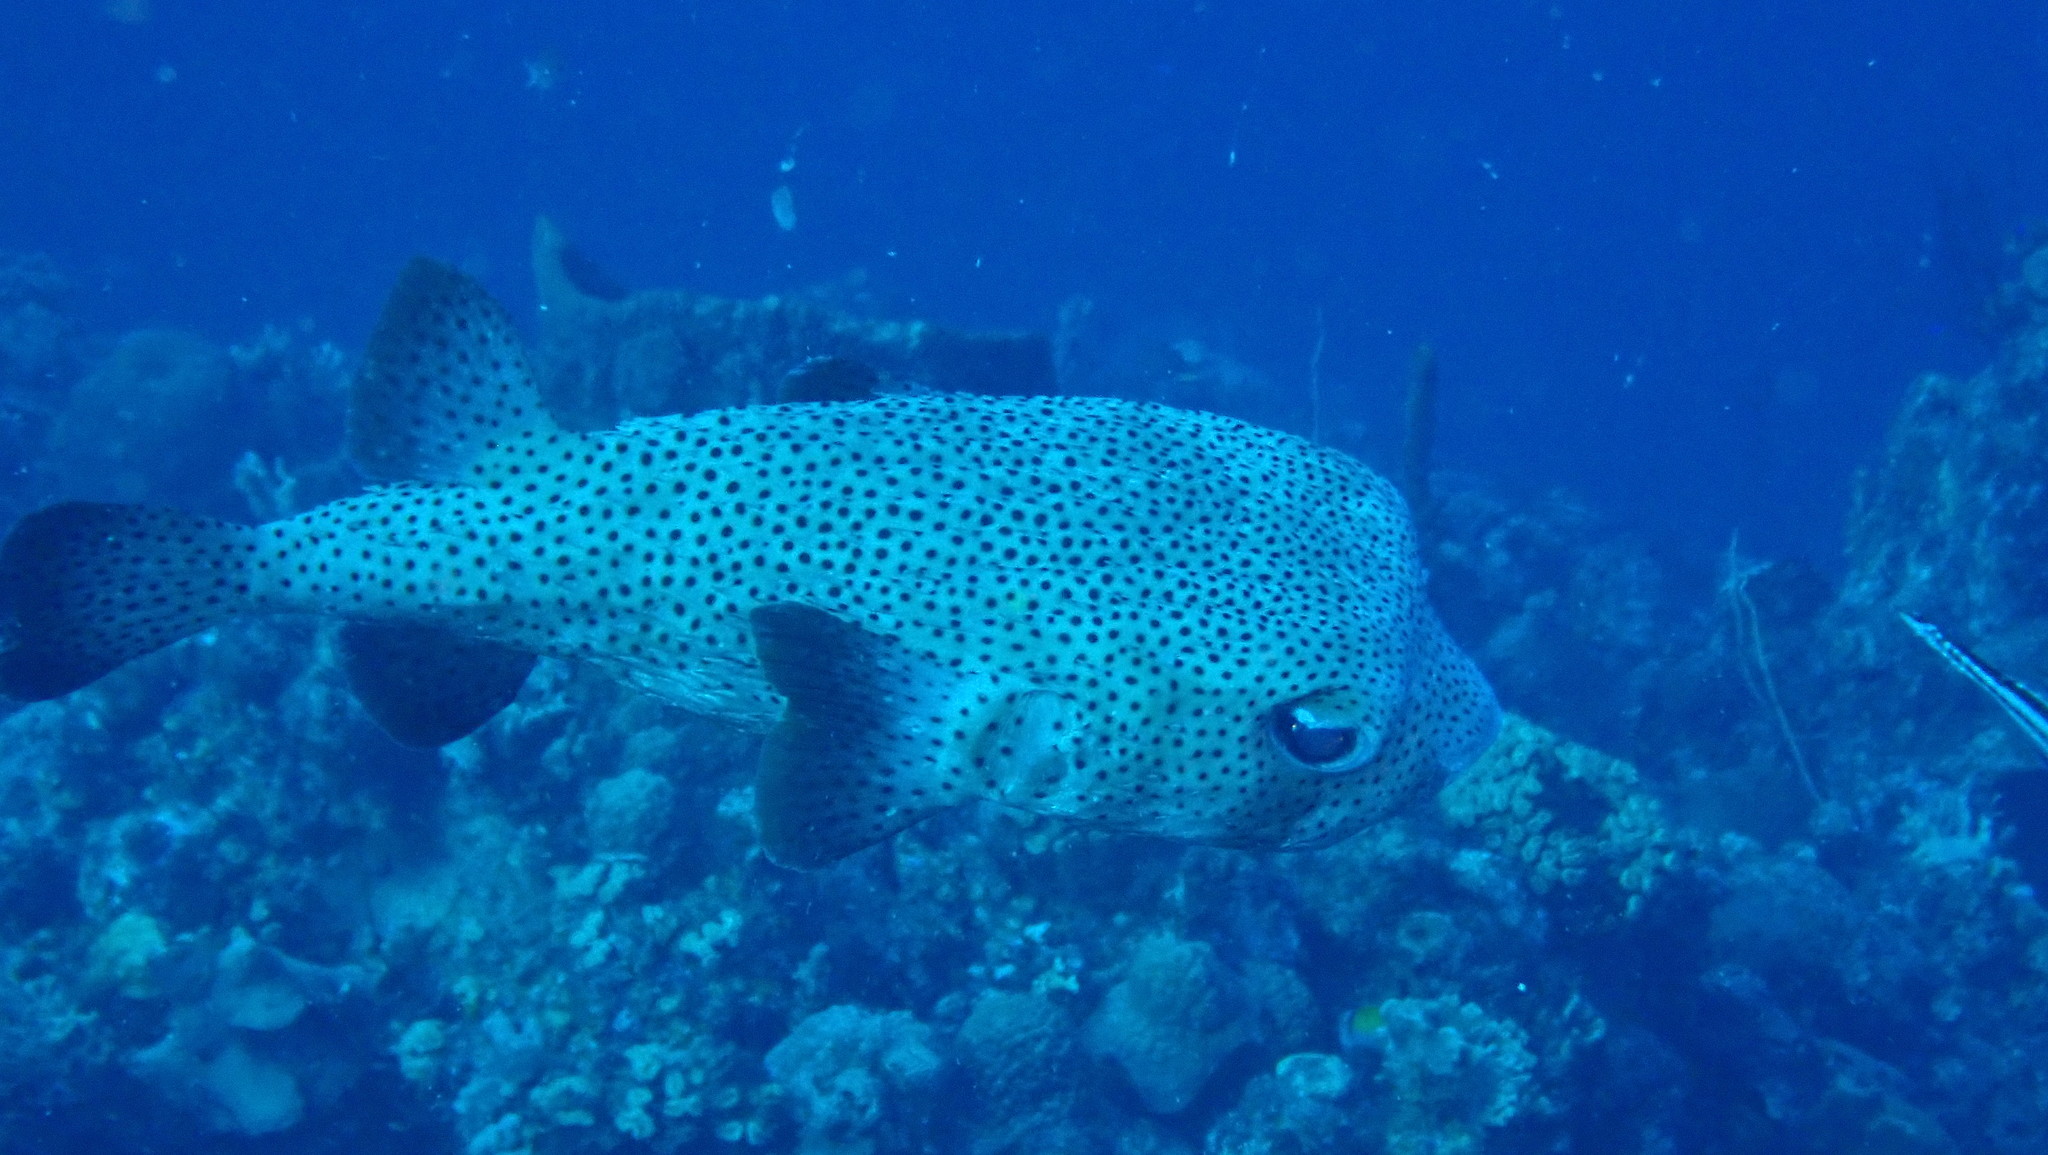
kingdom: Animalia
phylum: Chordata
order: Tetraodontiformes
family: Diodontidae
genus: Diodon
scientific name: Diodon hystrix
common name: Giant porcupinefish
